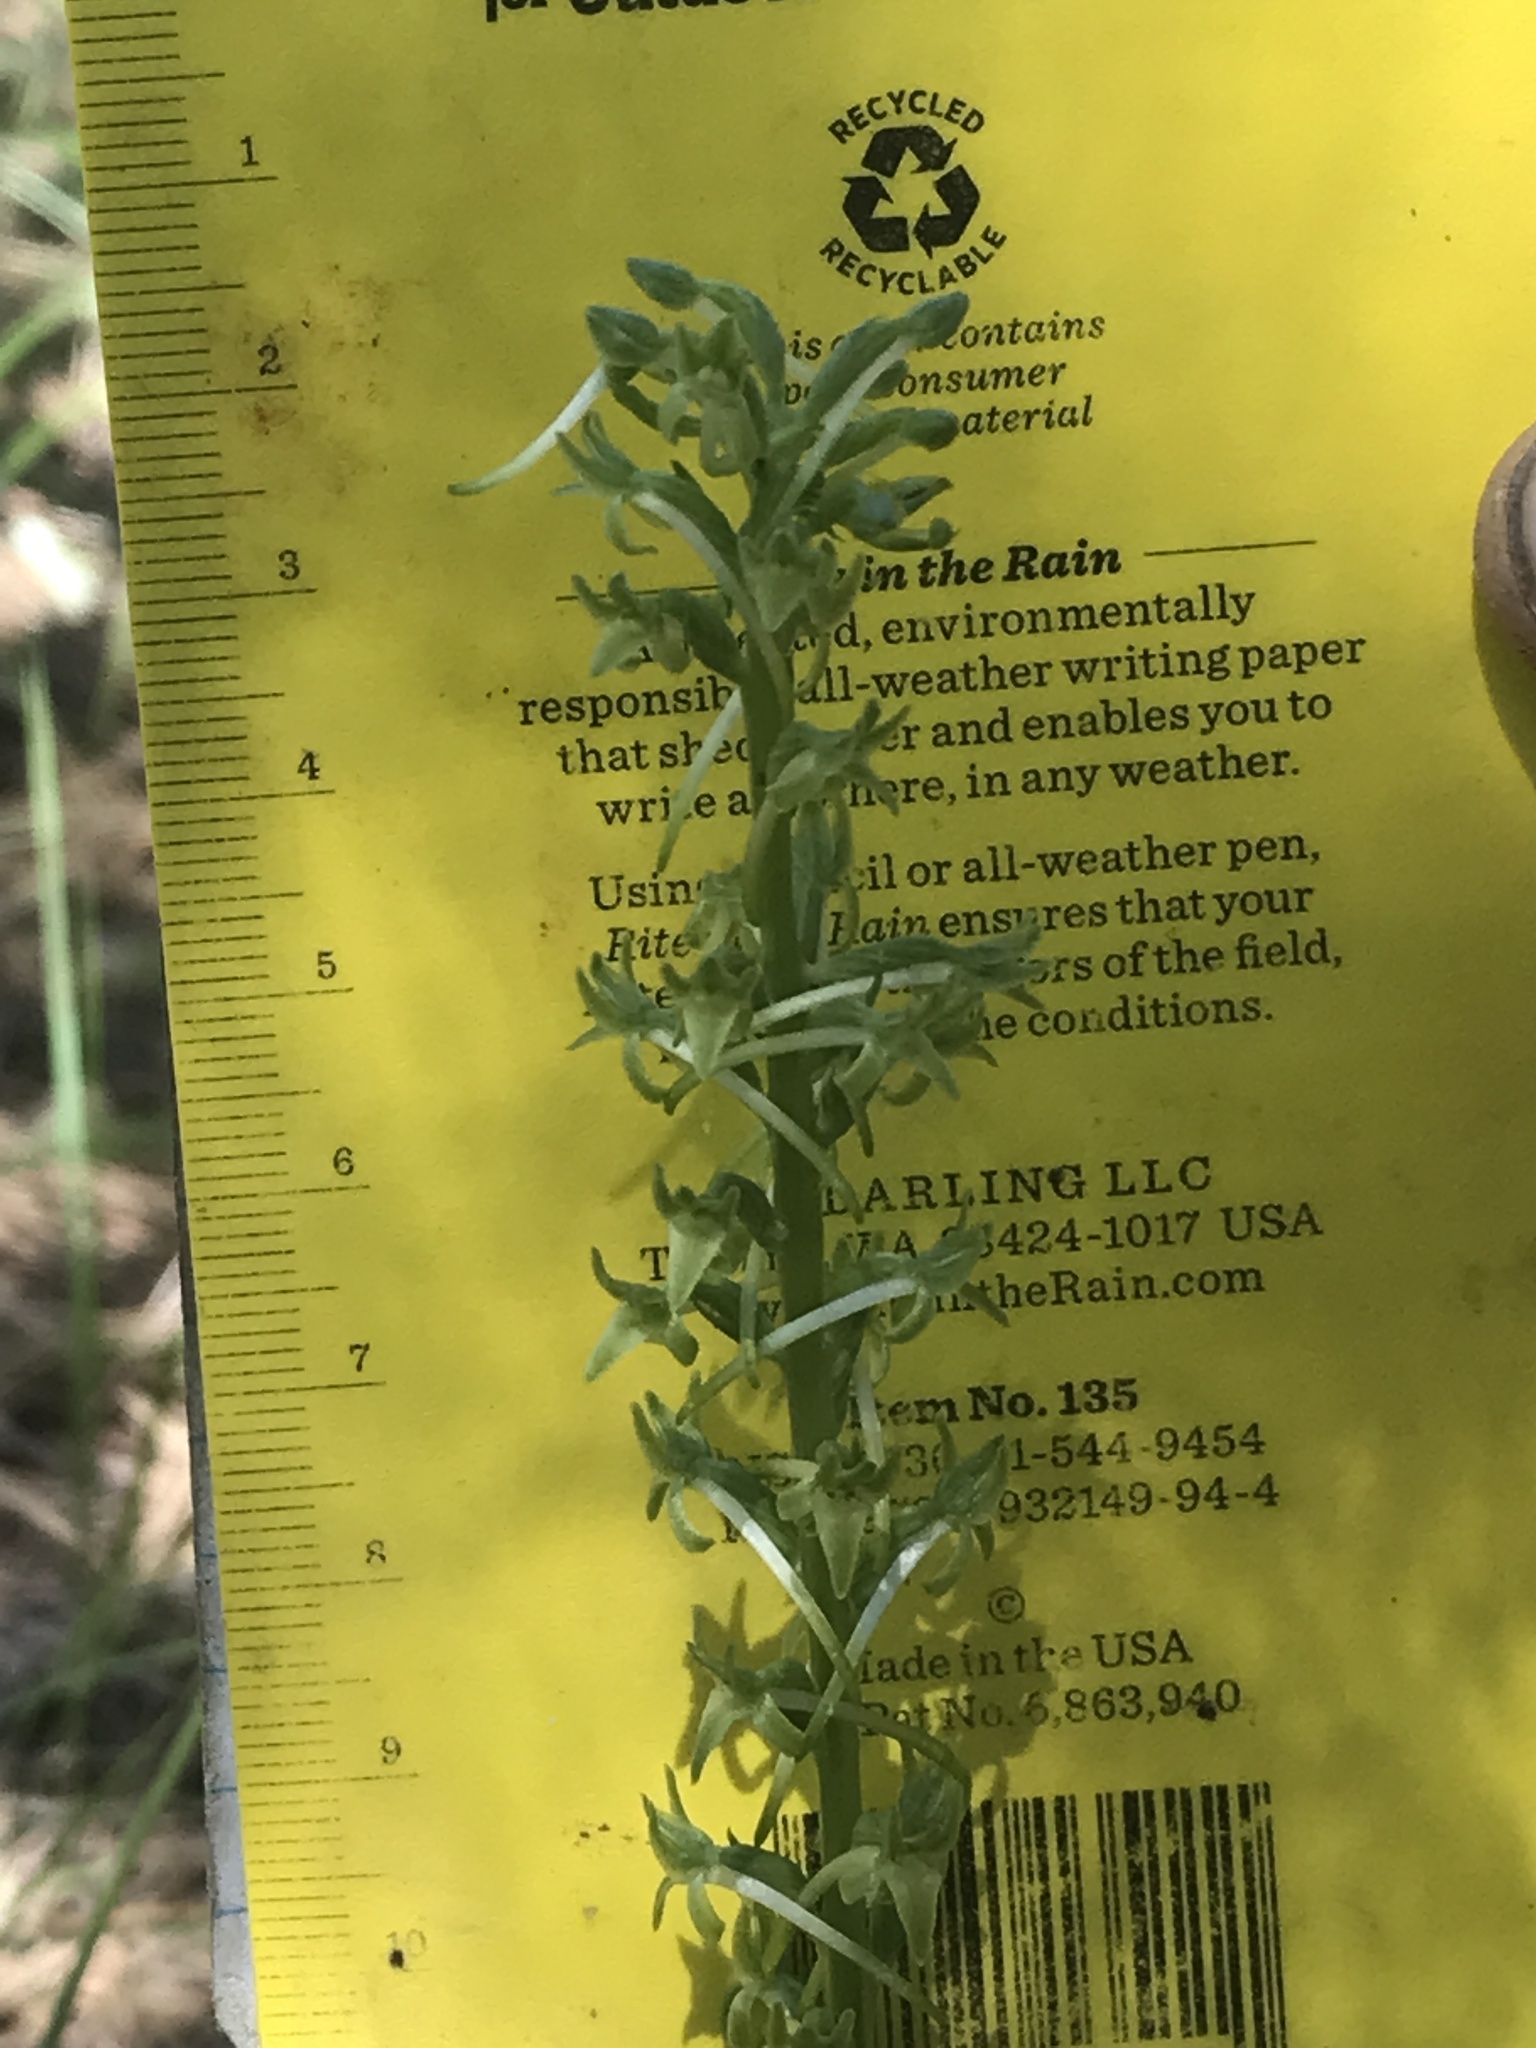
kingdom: Plantae
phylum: Tracheophyta
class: Liliopsida
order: Asparagales
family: Orchidaceae
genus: Platanthera
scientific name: Platanthera elongata
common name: Dense-flowered rein orchid
